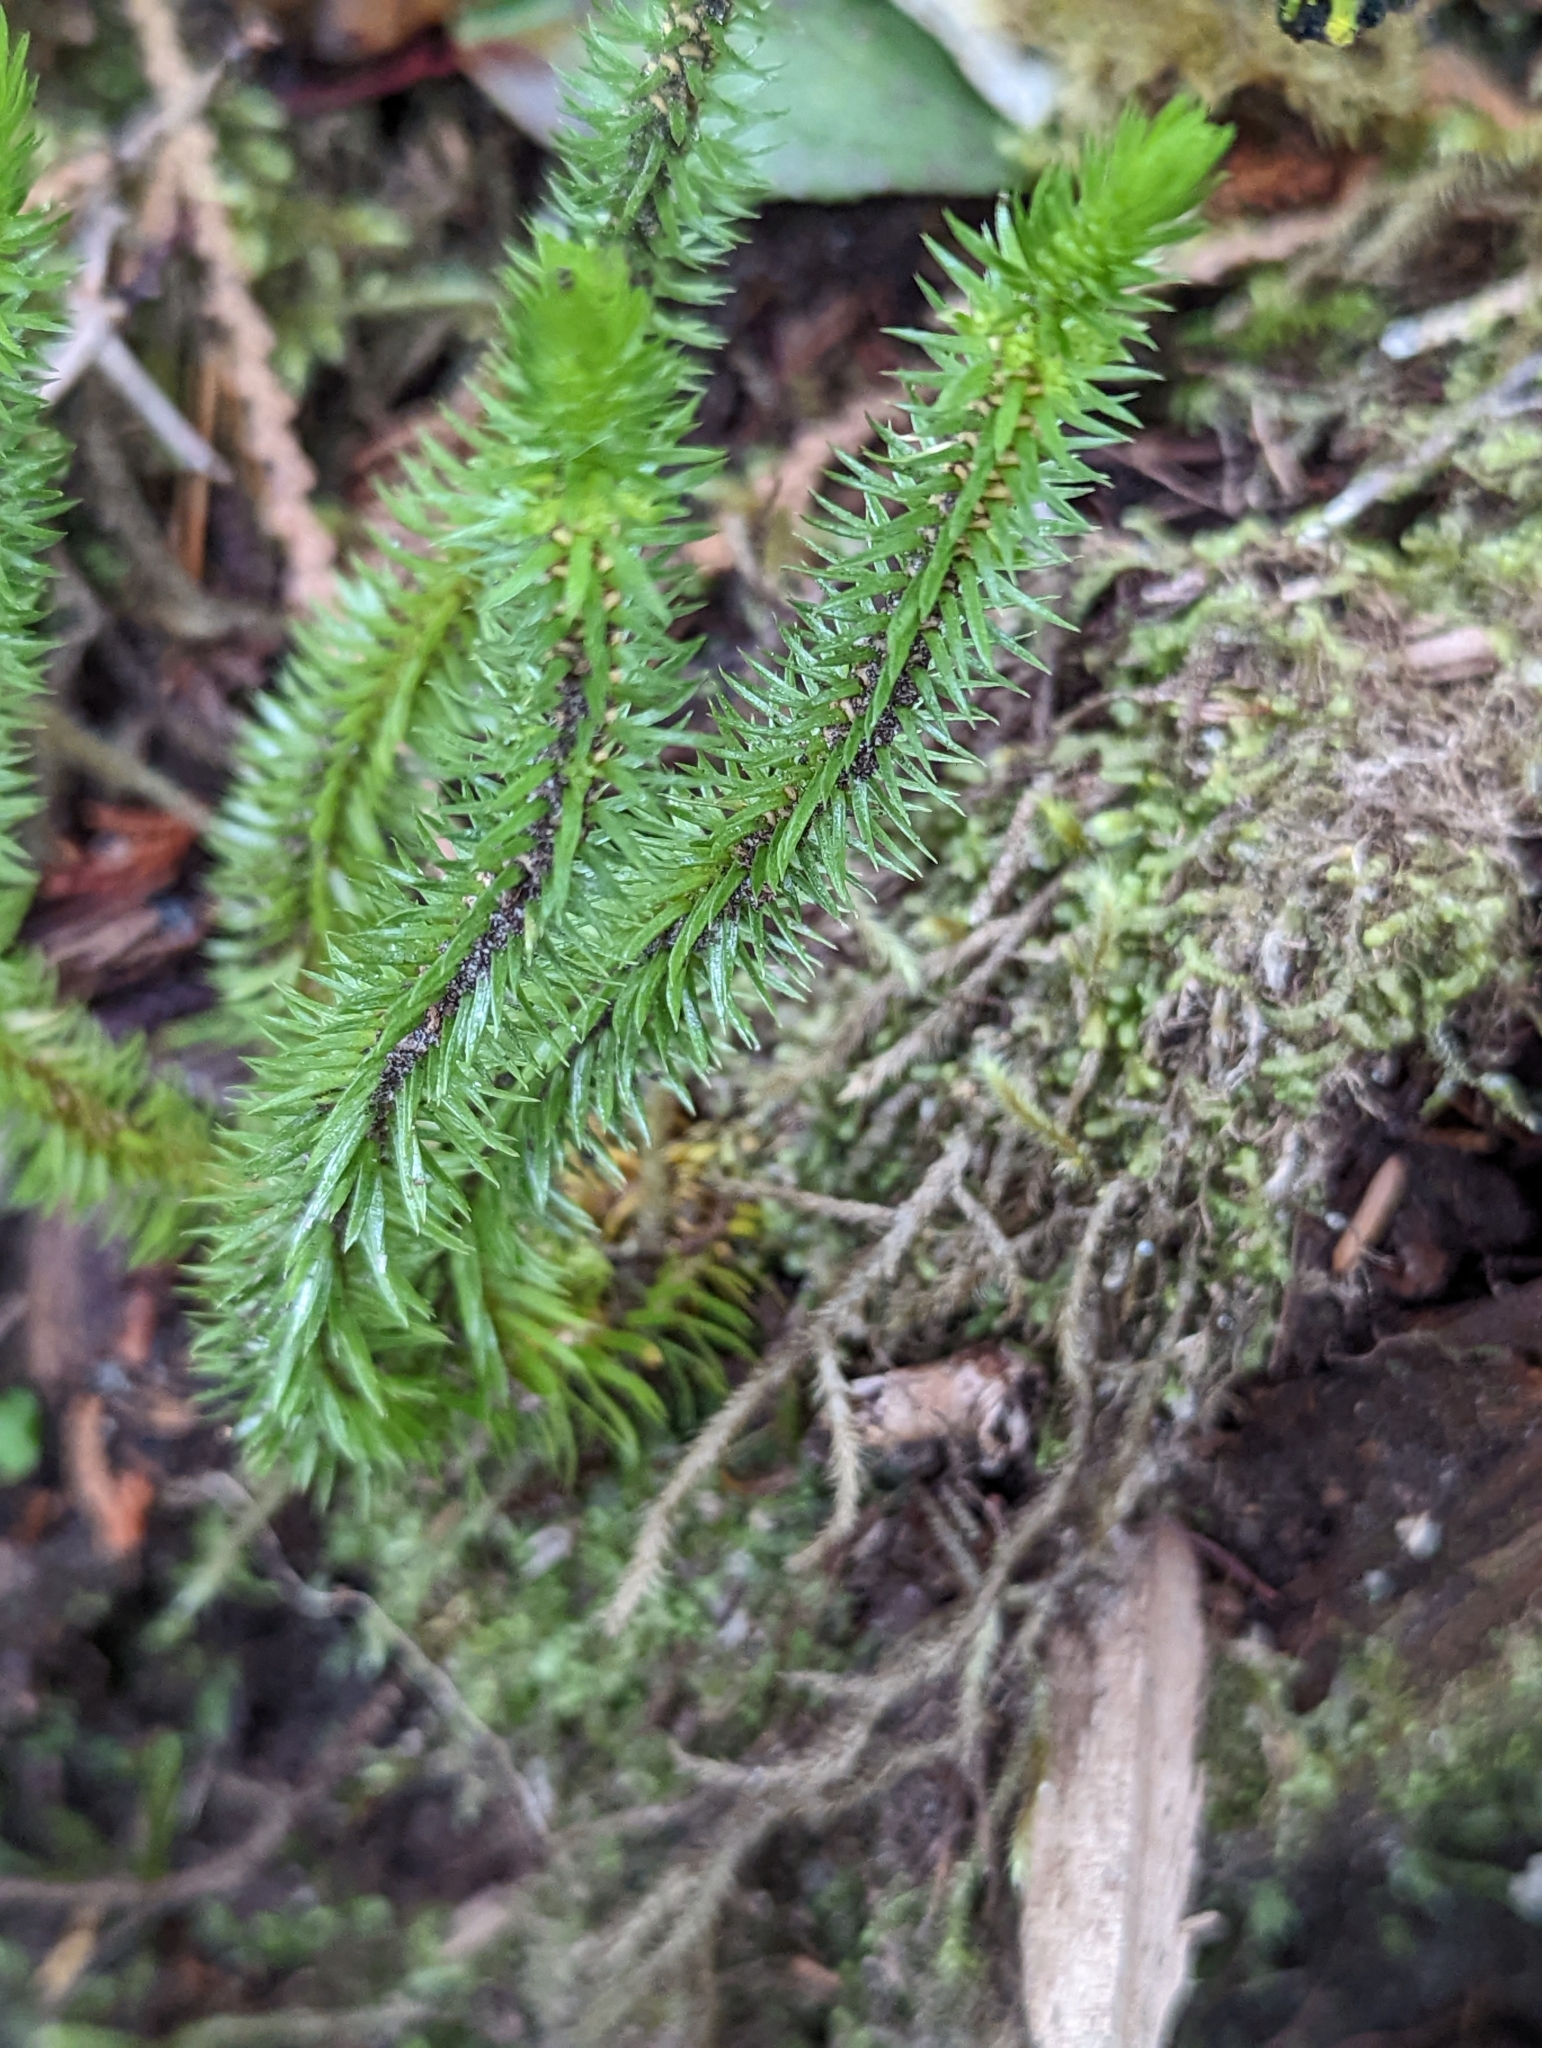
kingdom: Plantae
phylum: Tracheophyta
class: Lycopodiopsida
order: Lycopodiales
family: Lycopodiaceae
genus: Huperzia
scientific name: Huperzia miyoshiana
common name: Chinese clubmoss
